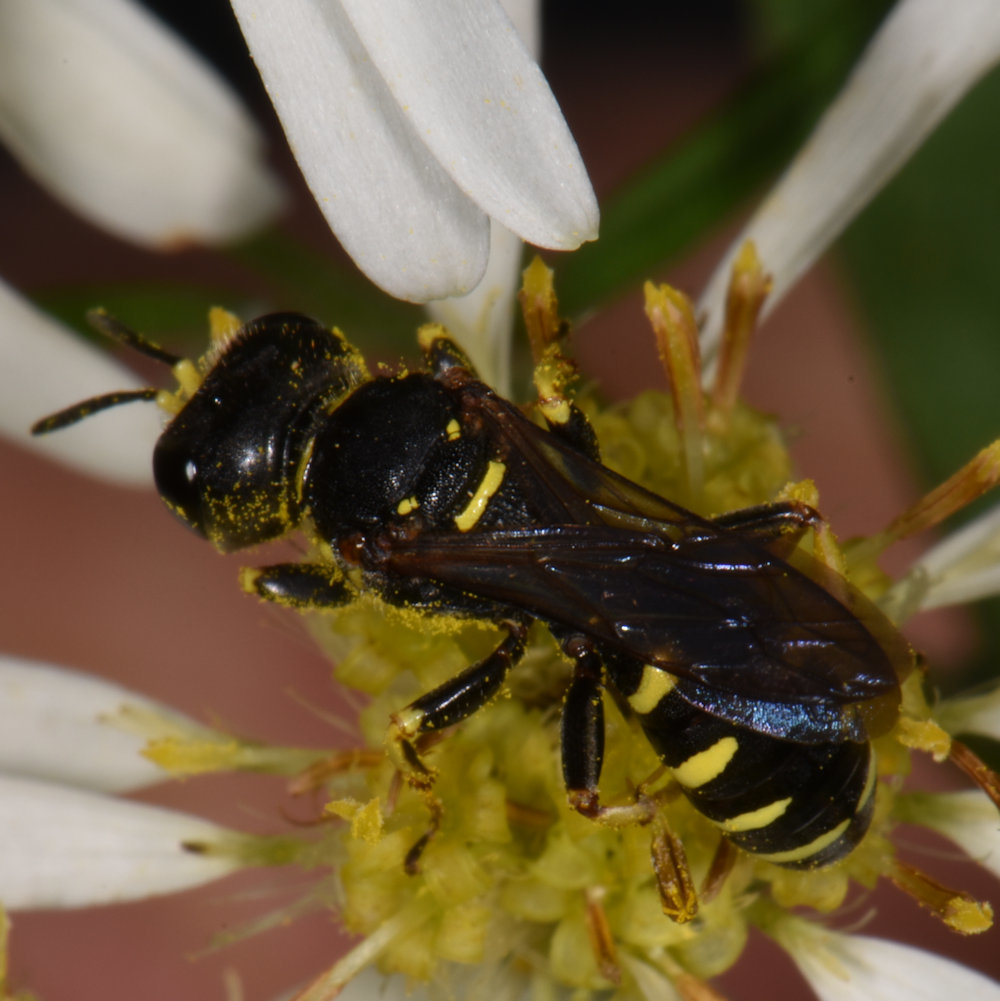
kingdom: Animalia
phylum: Arthropoda
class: Insecta
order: Hymenoptera
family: Crabronidae
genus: Ectemnius
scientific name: Ectemnius arcuatus
